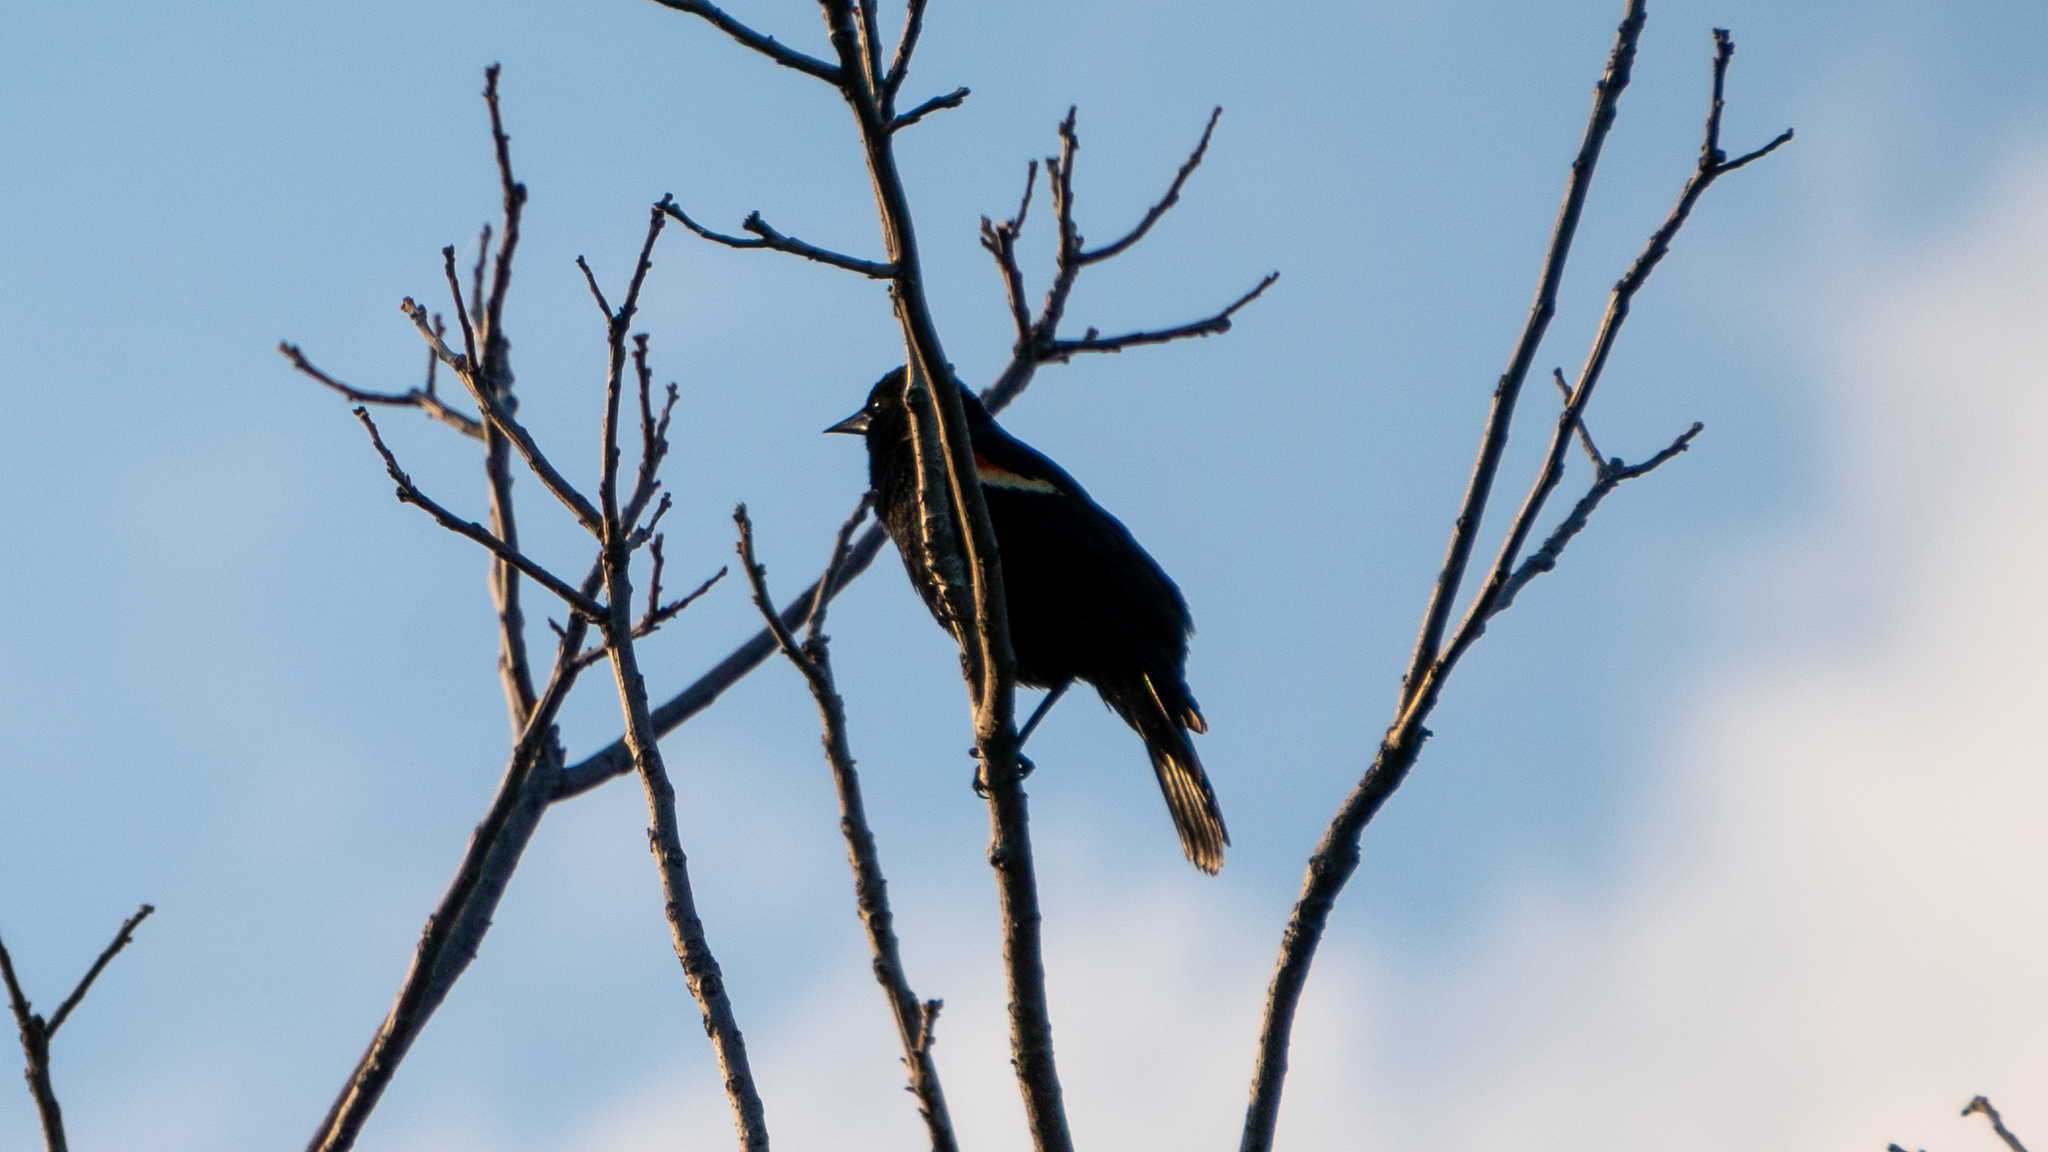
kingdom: Animalia
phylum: Chordata
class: Aves
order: Passeriformes
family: Icteridae
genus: Agelaius
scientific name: Agelaius phoeniceus
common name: Red-winged blackbird
